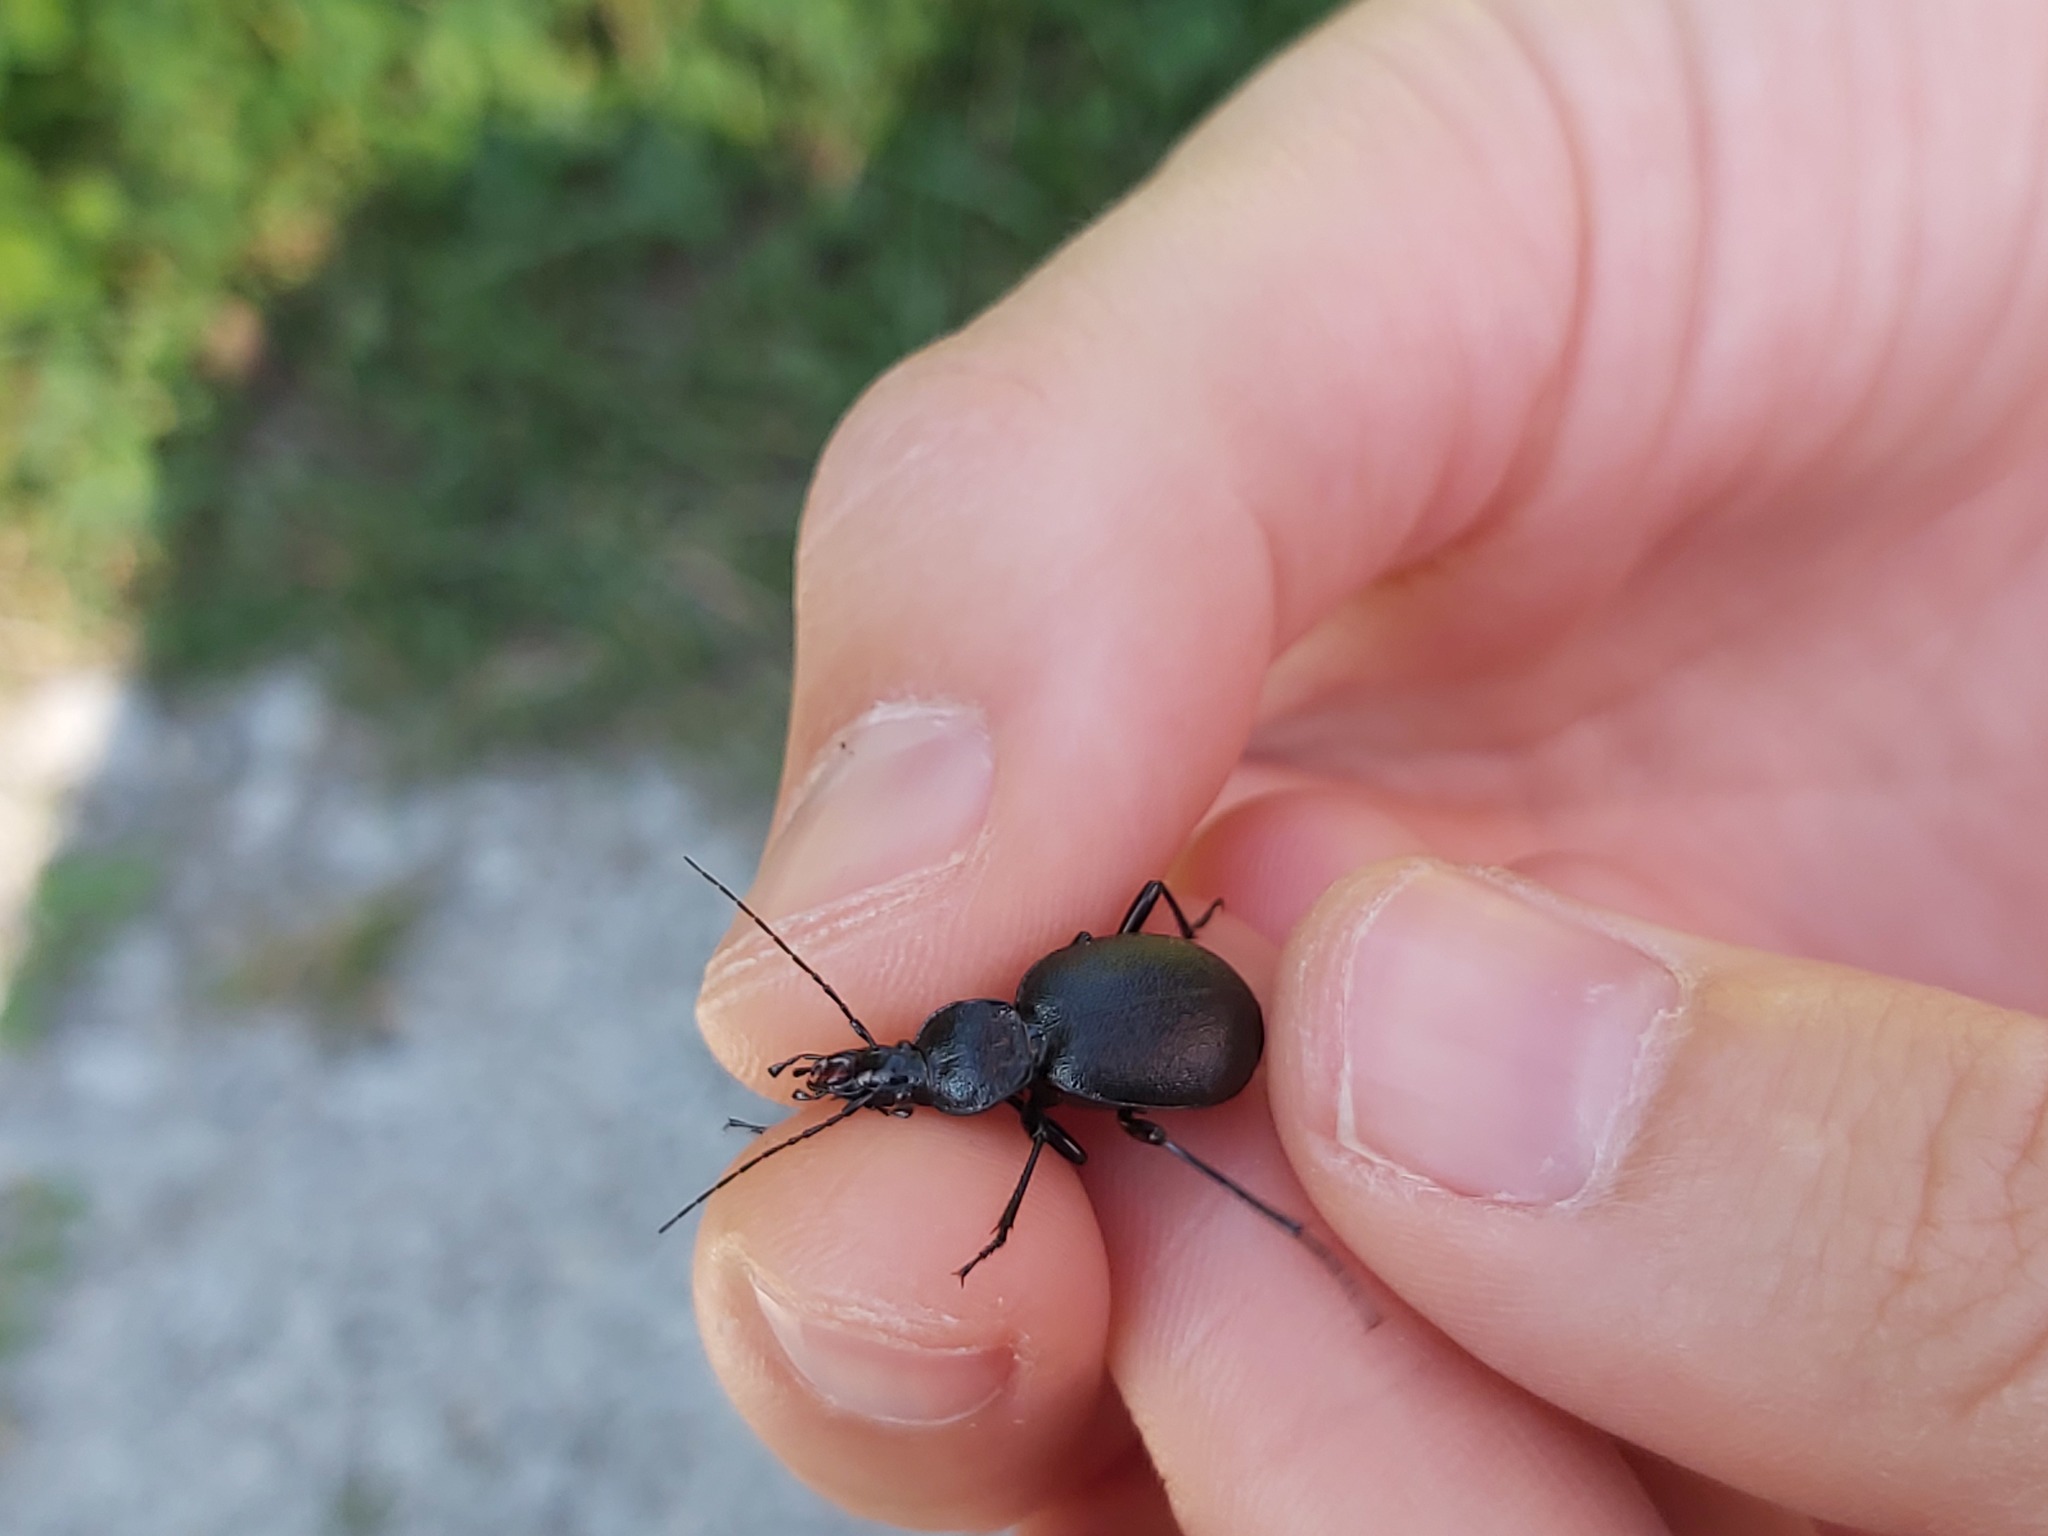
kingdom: Animalia
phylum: Arthropoda
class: Insecta
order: Coleoptera
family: Carabidae
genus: Cychrus
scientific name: Cychrus caraboides
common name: Snail hunter
